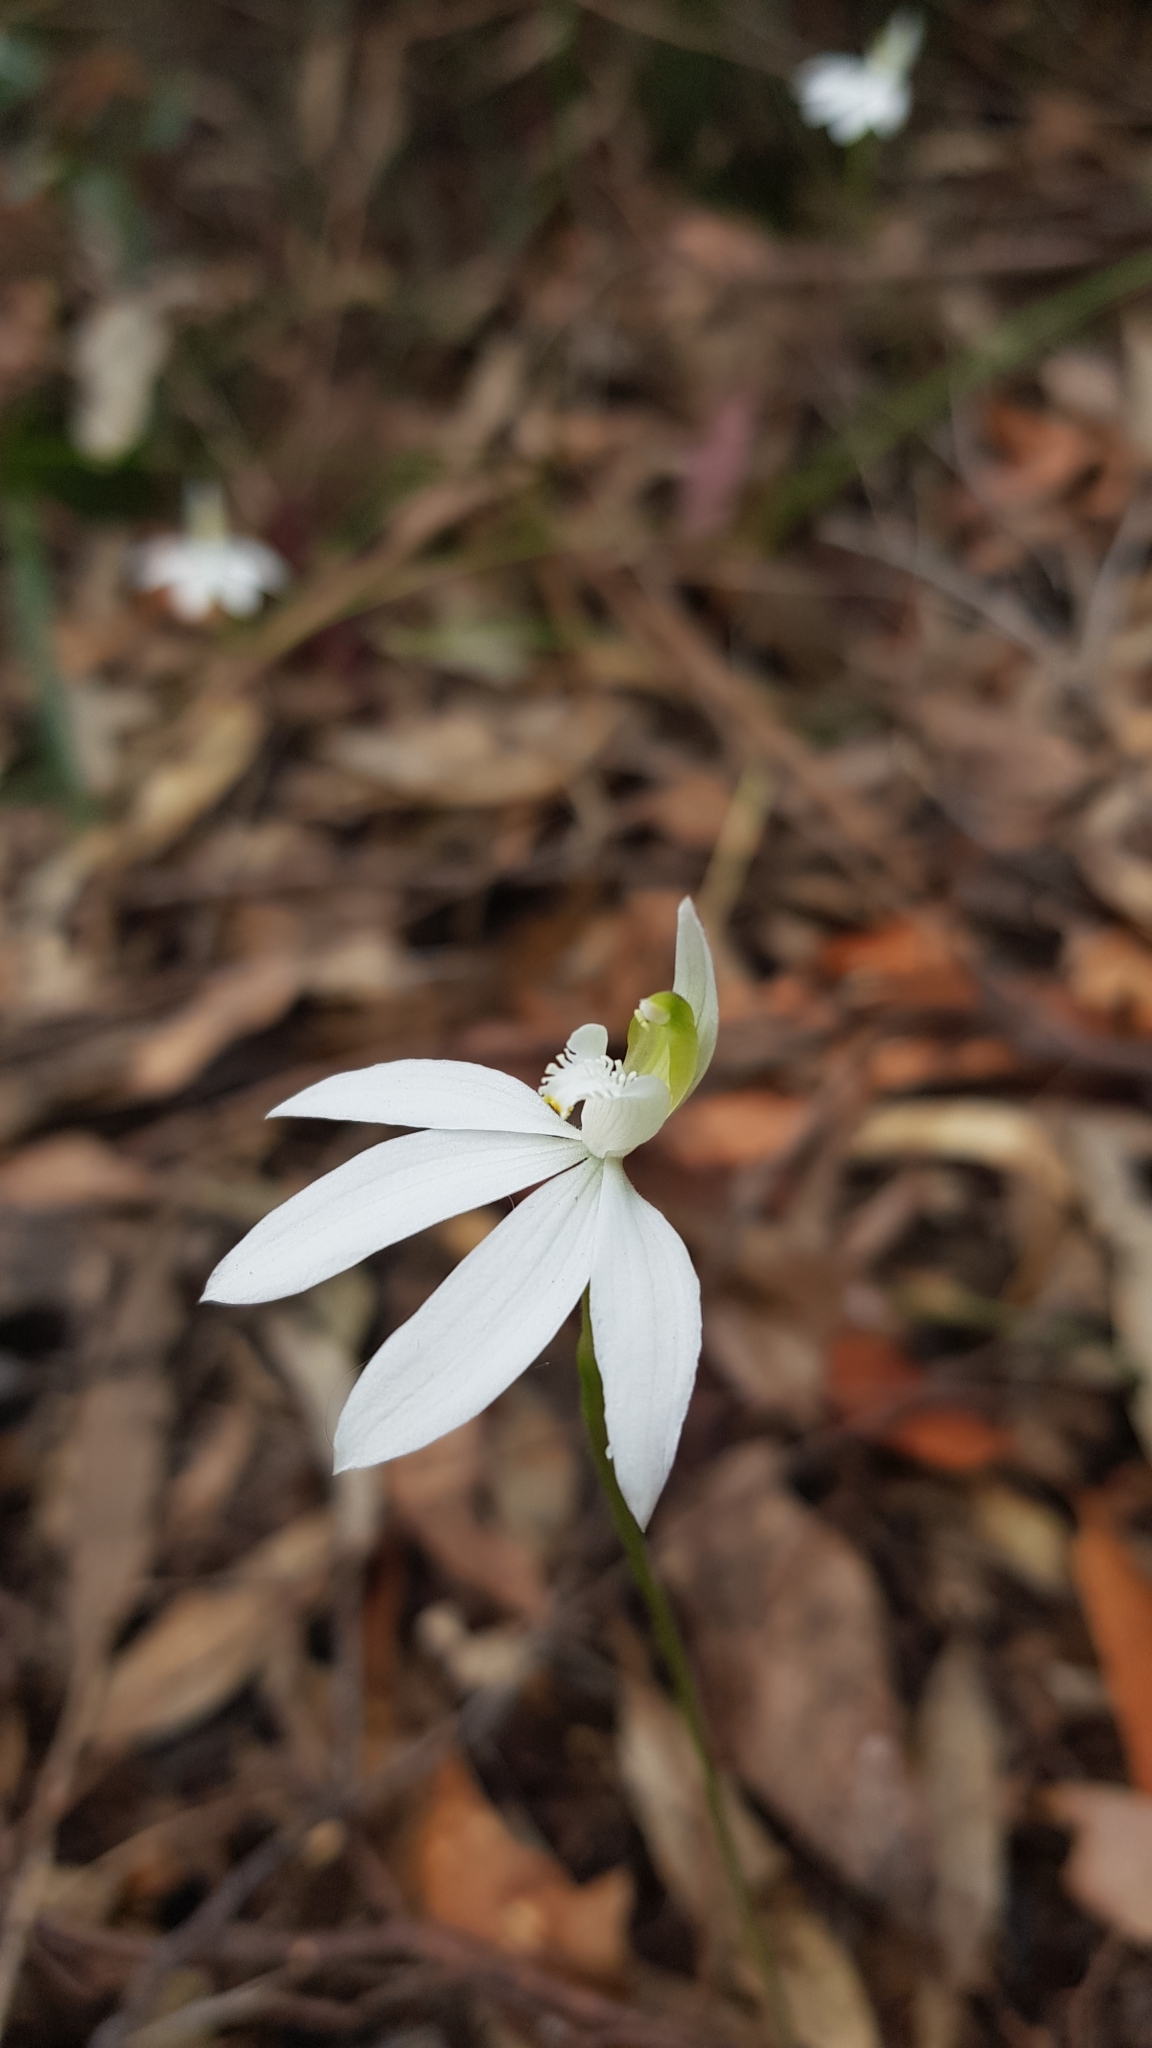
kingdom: Plantae
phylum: Tracheophyta
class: Liliopsida
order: Asparagales
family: Orchidaceae
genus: Caladenia
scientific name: Caladenia catenata
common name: White caladenia
